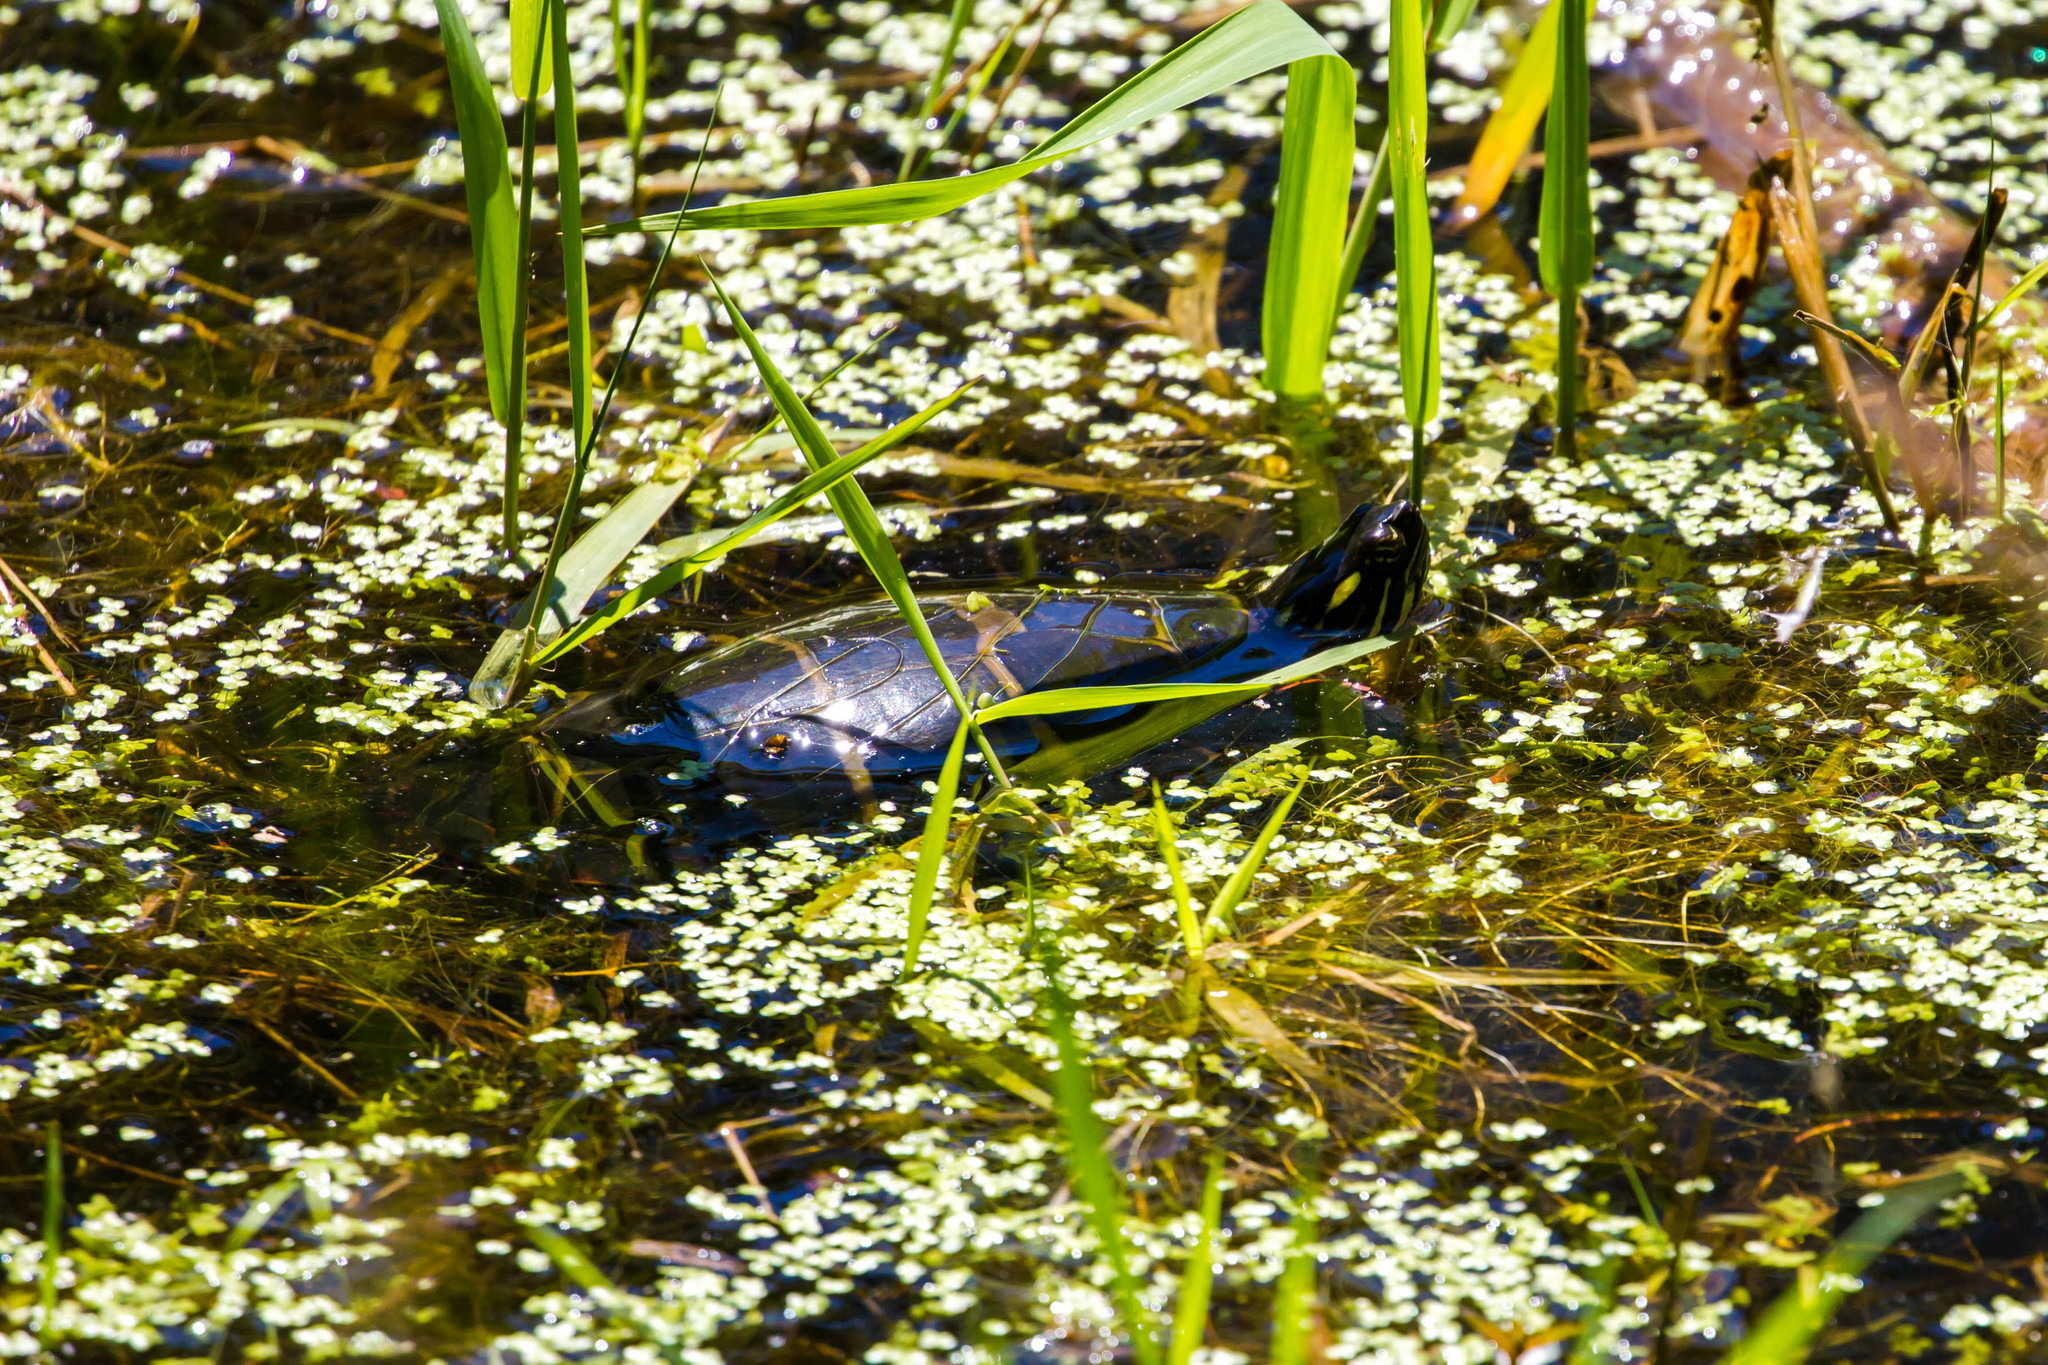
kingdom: Animalia
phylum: Chordata
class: Testudines
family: Emydidae
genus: Chrysemys
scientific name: Chrysemys picta
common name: Painted turtle
